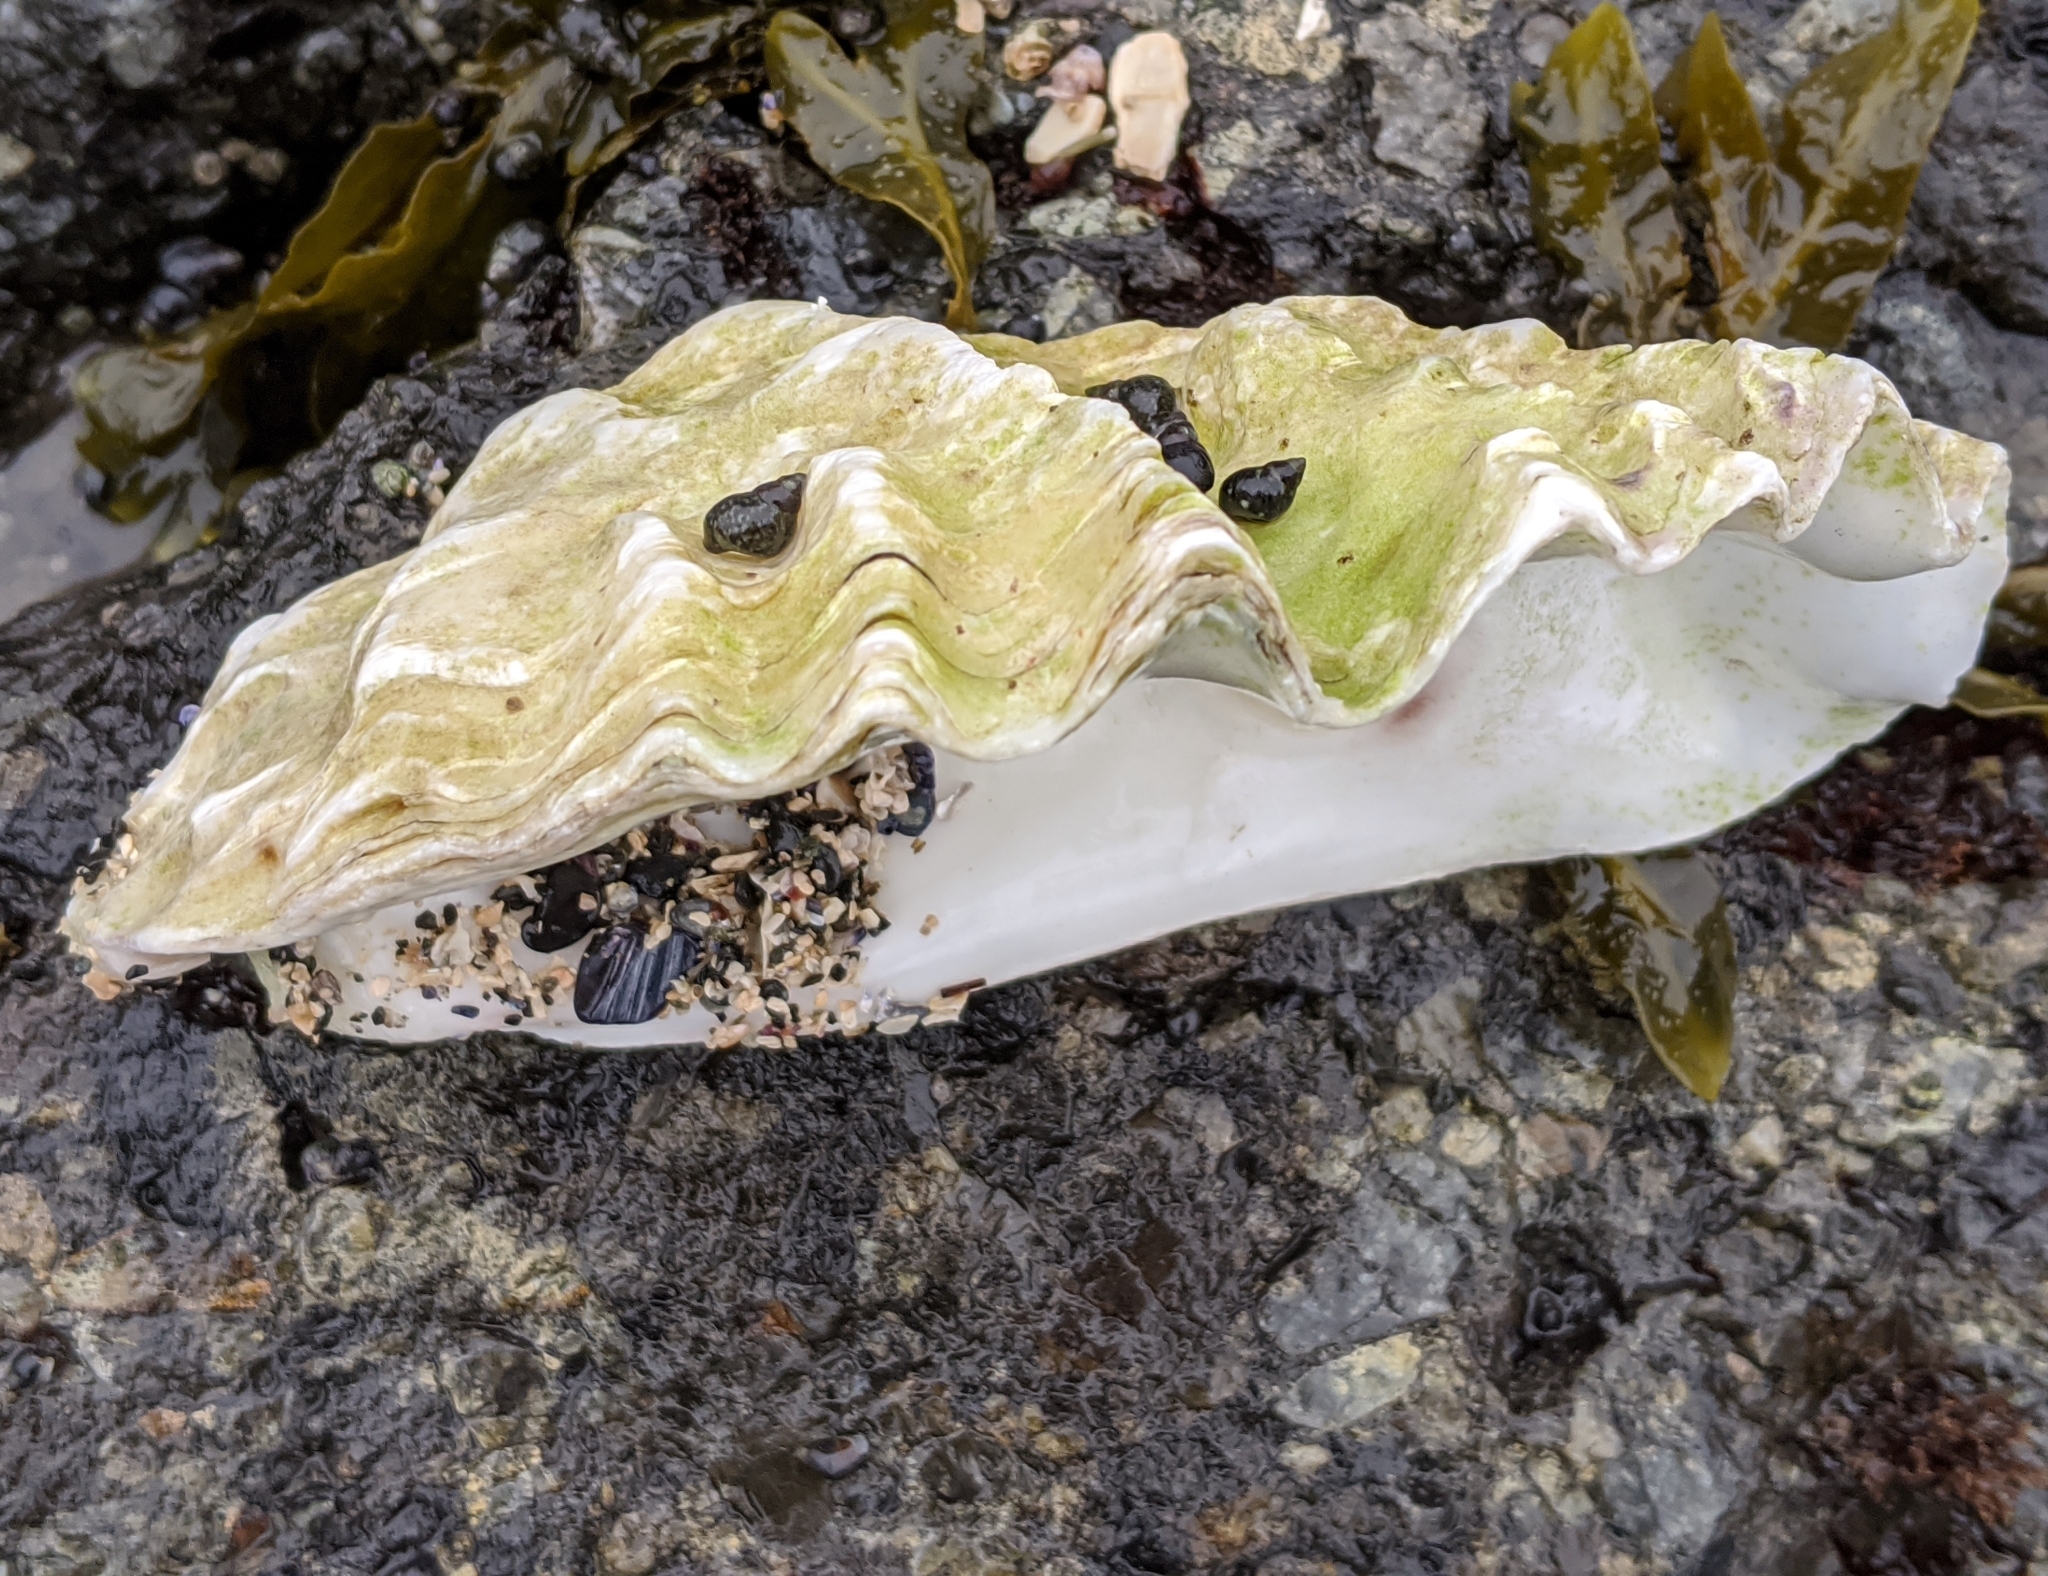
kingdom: Animalia
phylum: Mollusca
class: Bivalvia
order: Ostreida
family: Ostreidae
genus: Magallana
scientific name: Magallana gigas
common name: Pacific oyster
